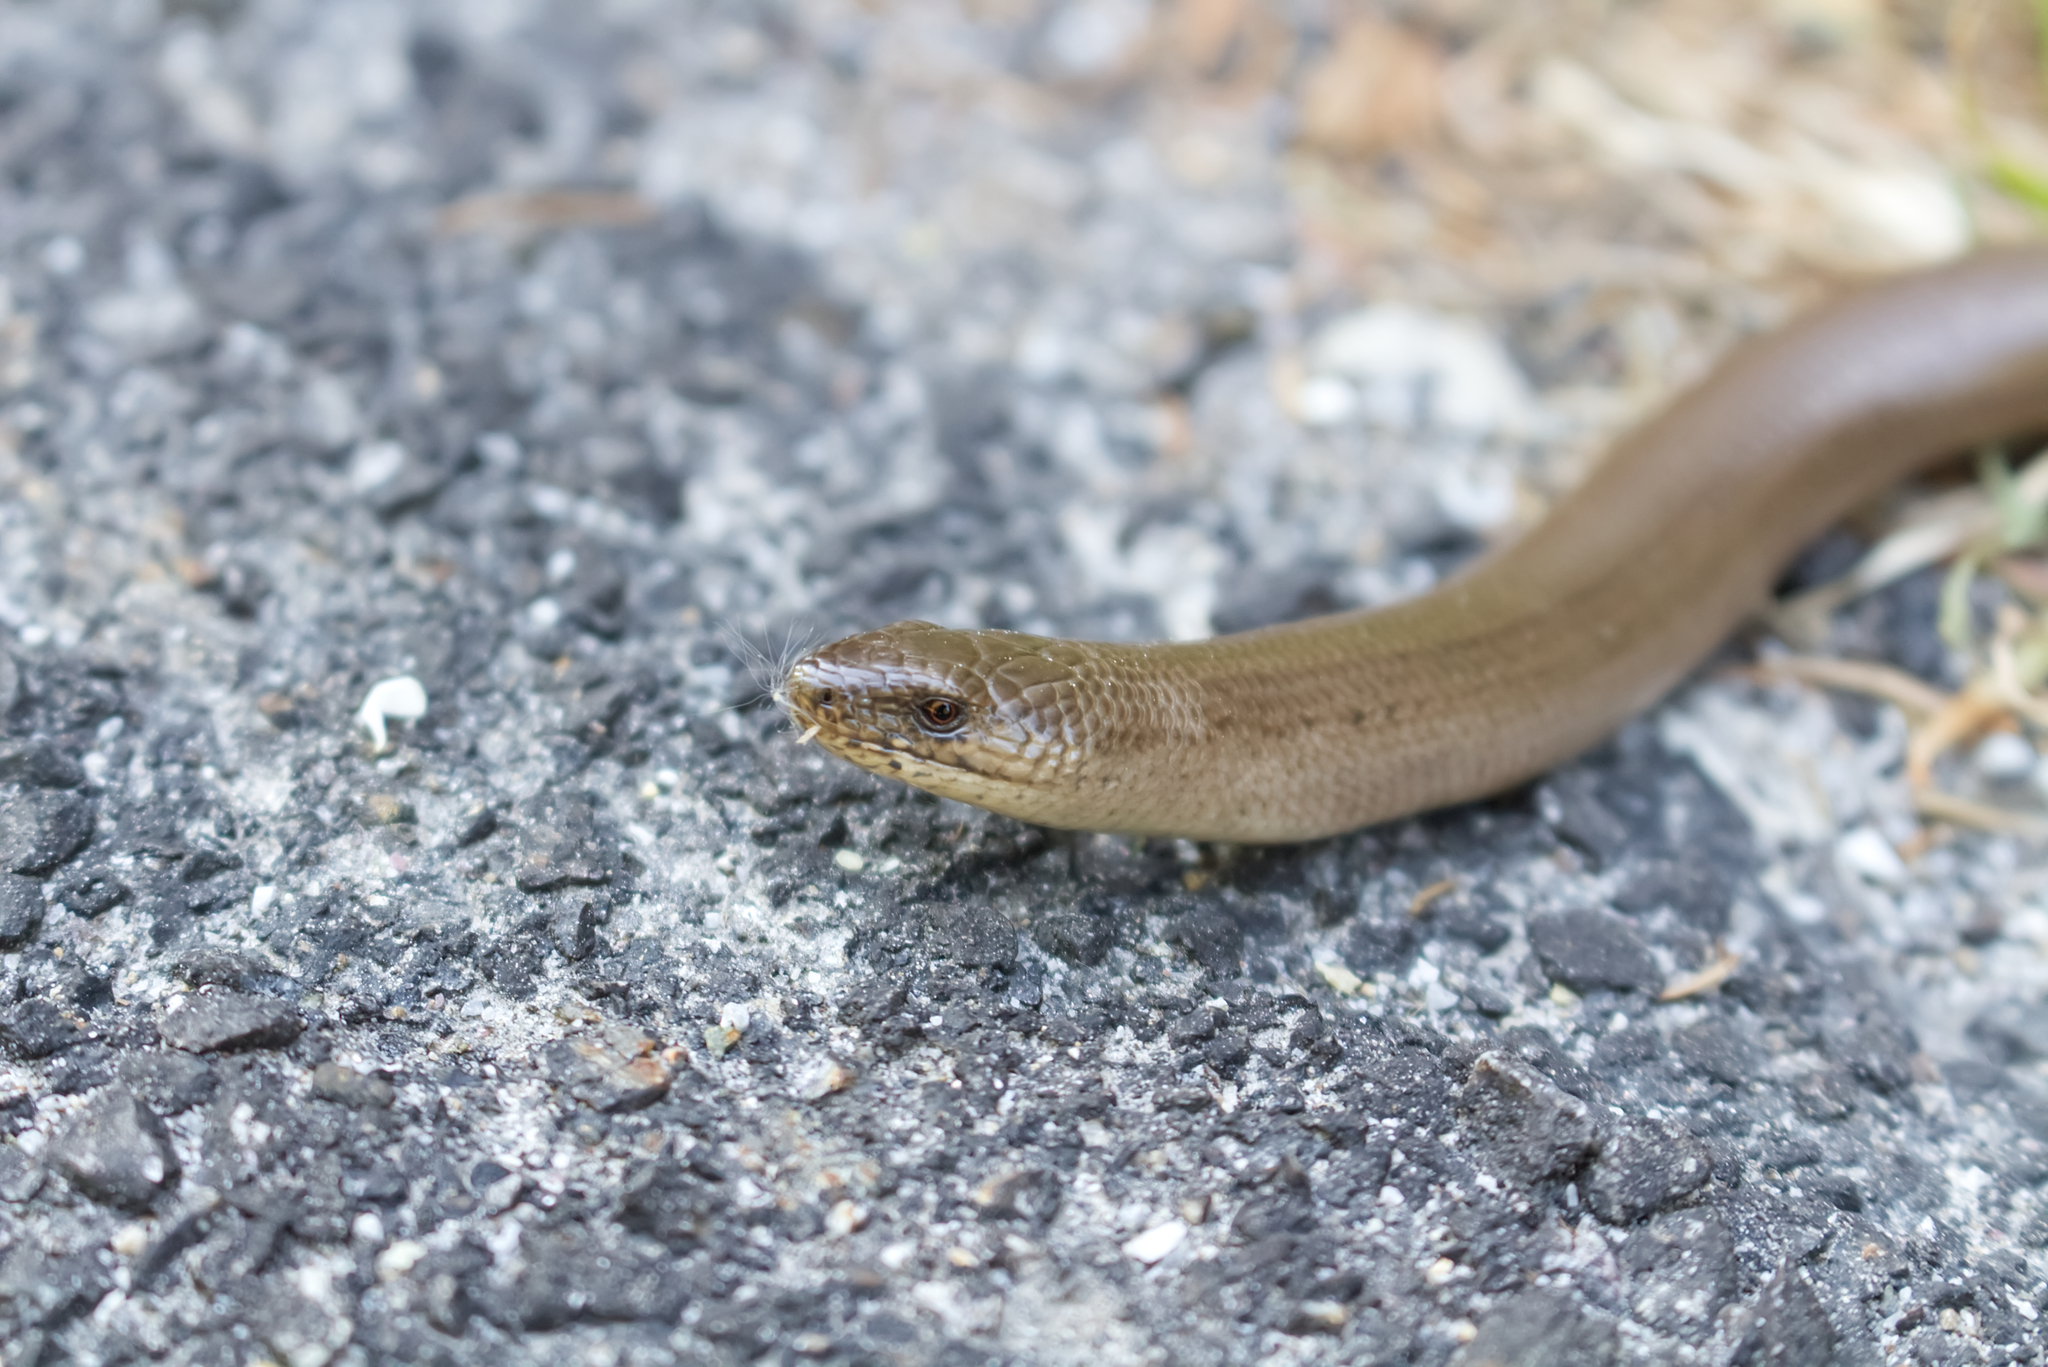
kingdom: Animalia
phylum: Chordata
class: Squamata
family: Anguidae
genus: Anguis
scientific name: Anguis fragilis
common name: Slow worm
